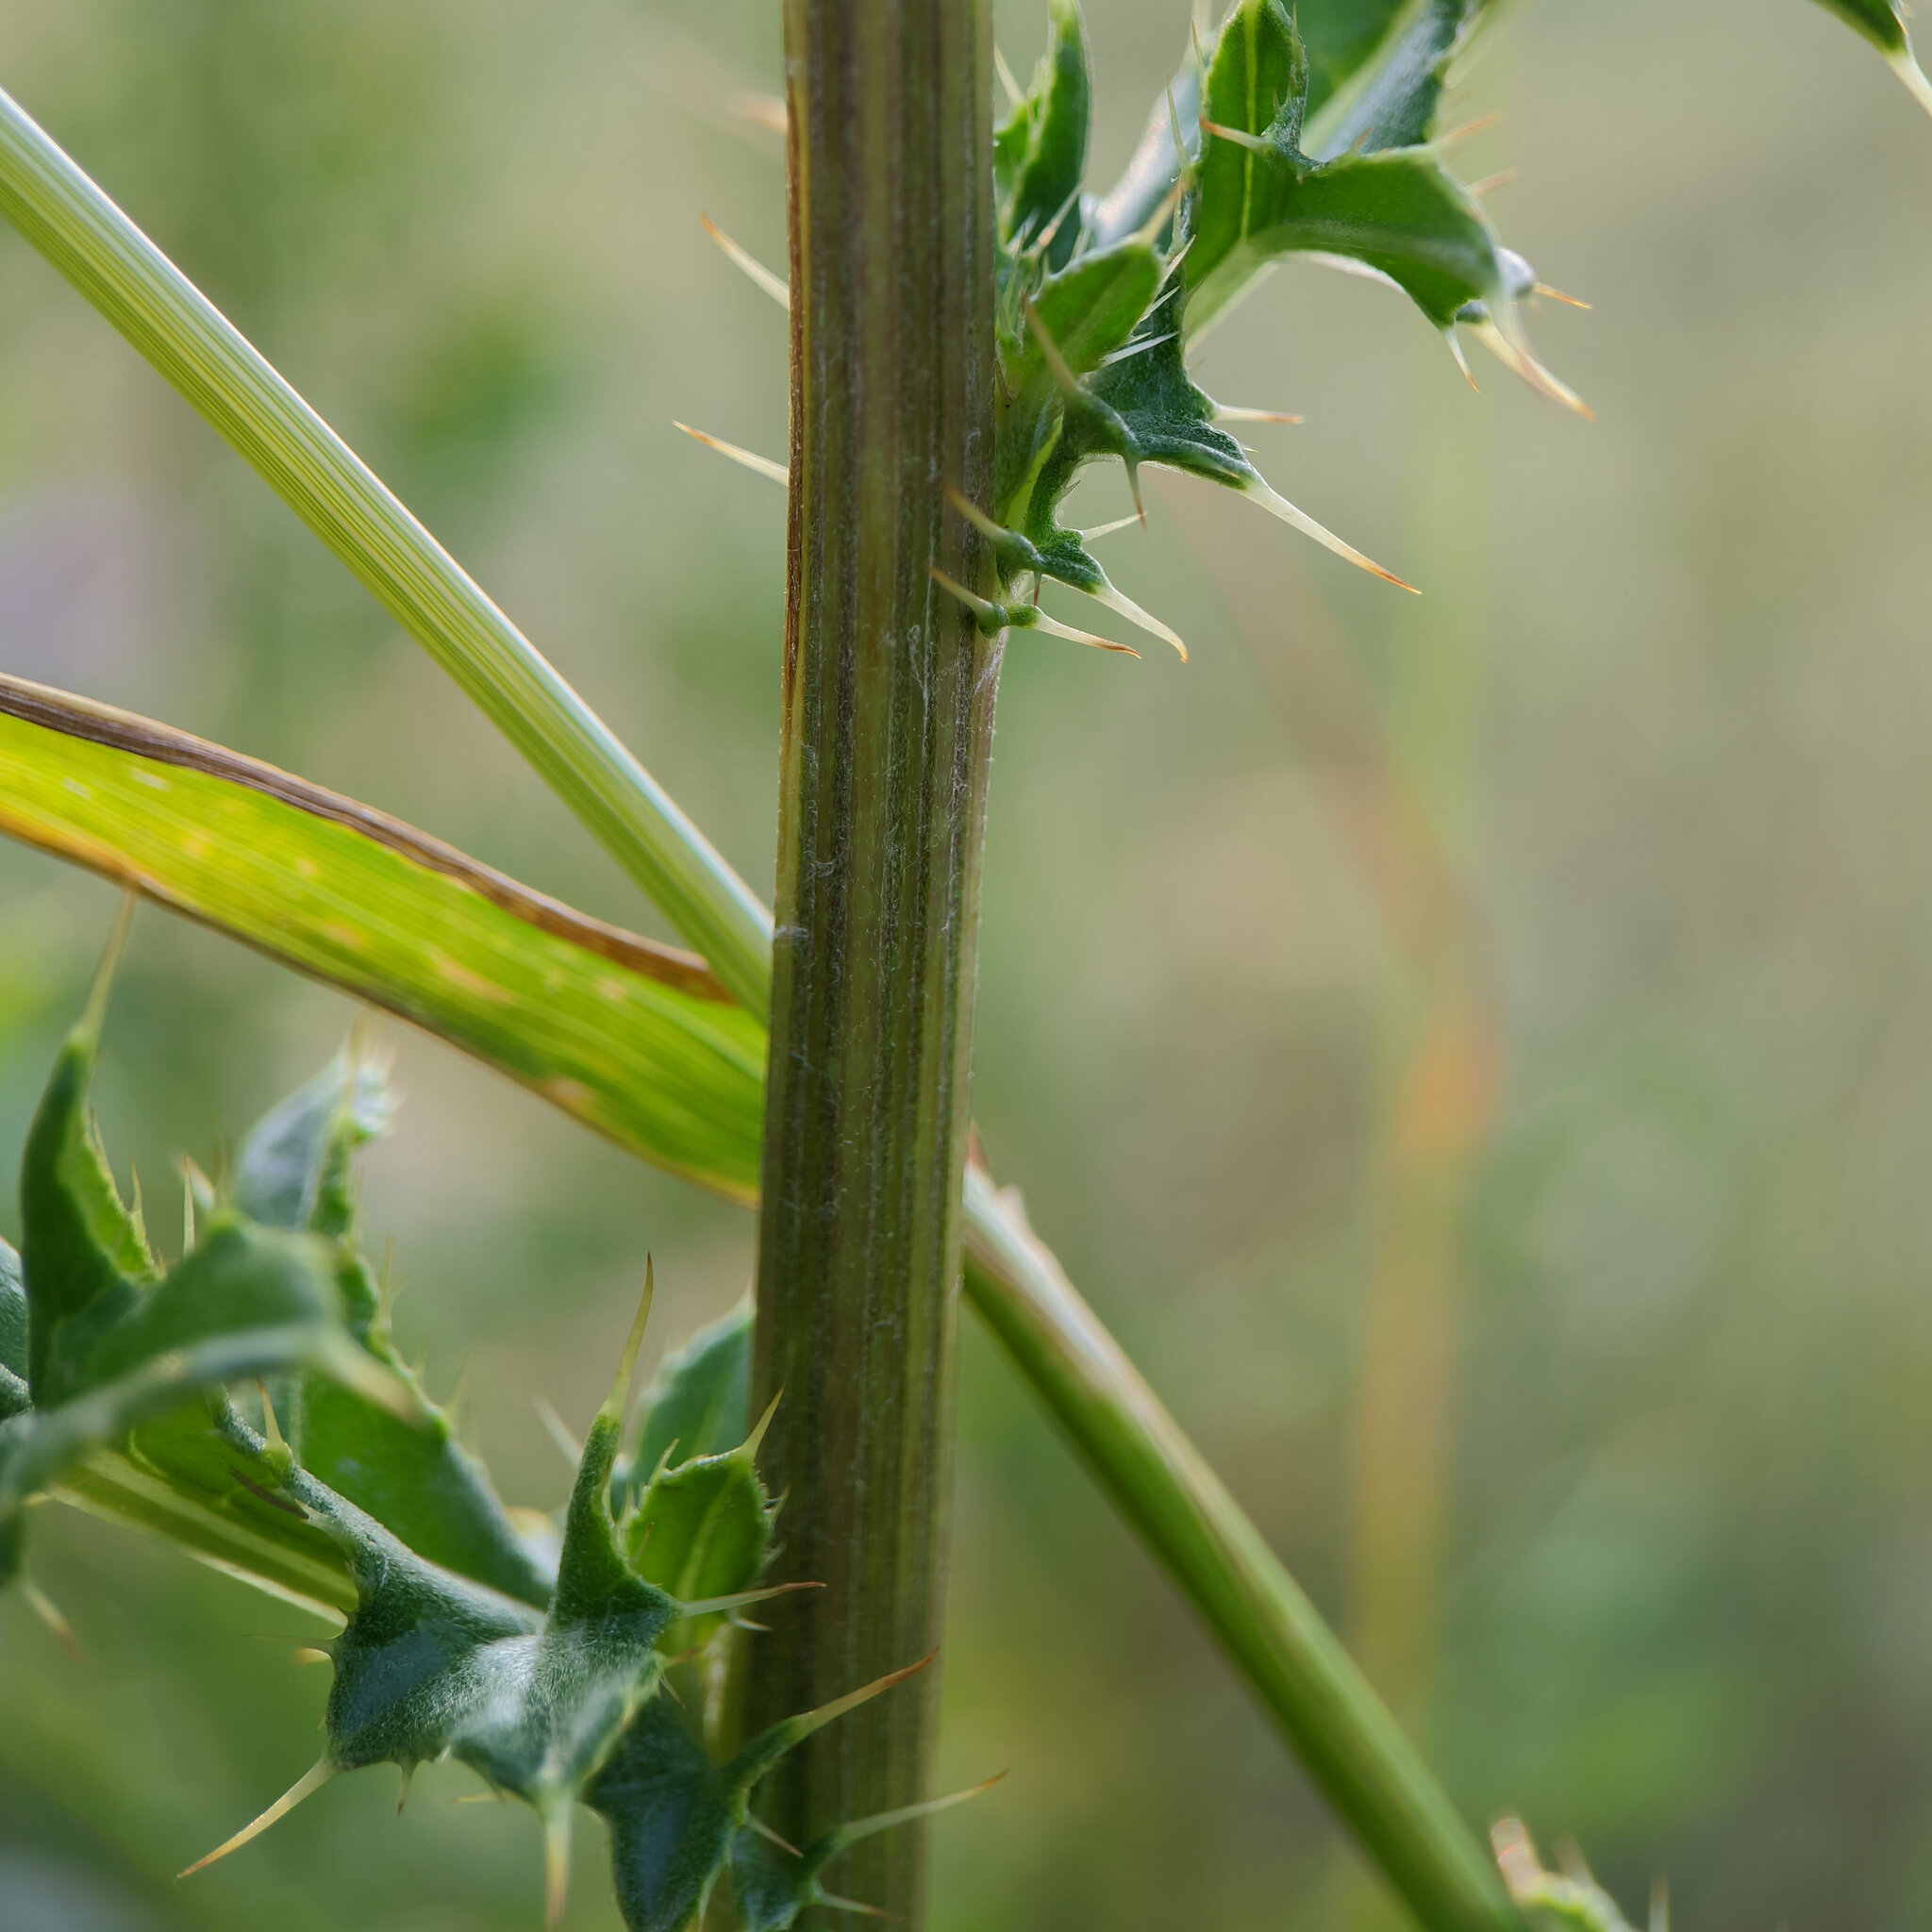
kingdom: Plantae
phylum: Tracheophyta
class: Magnoliopsida
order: Asterales
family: Asteraceae
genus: Cirsium
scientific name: Cirsium arvense
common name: Creeping thistle
